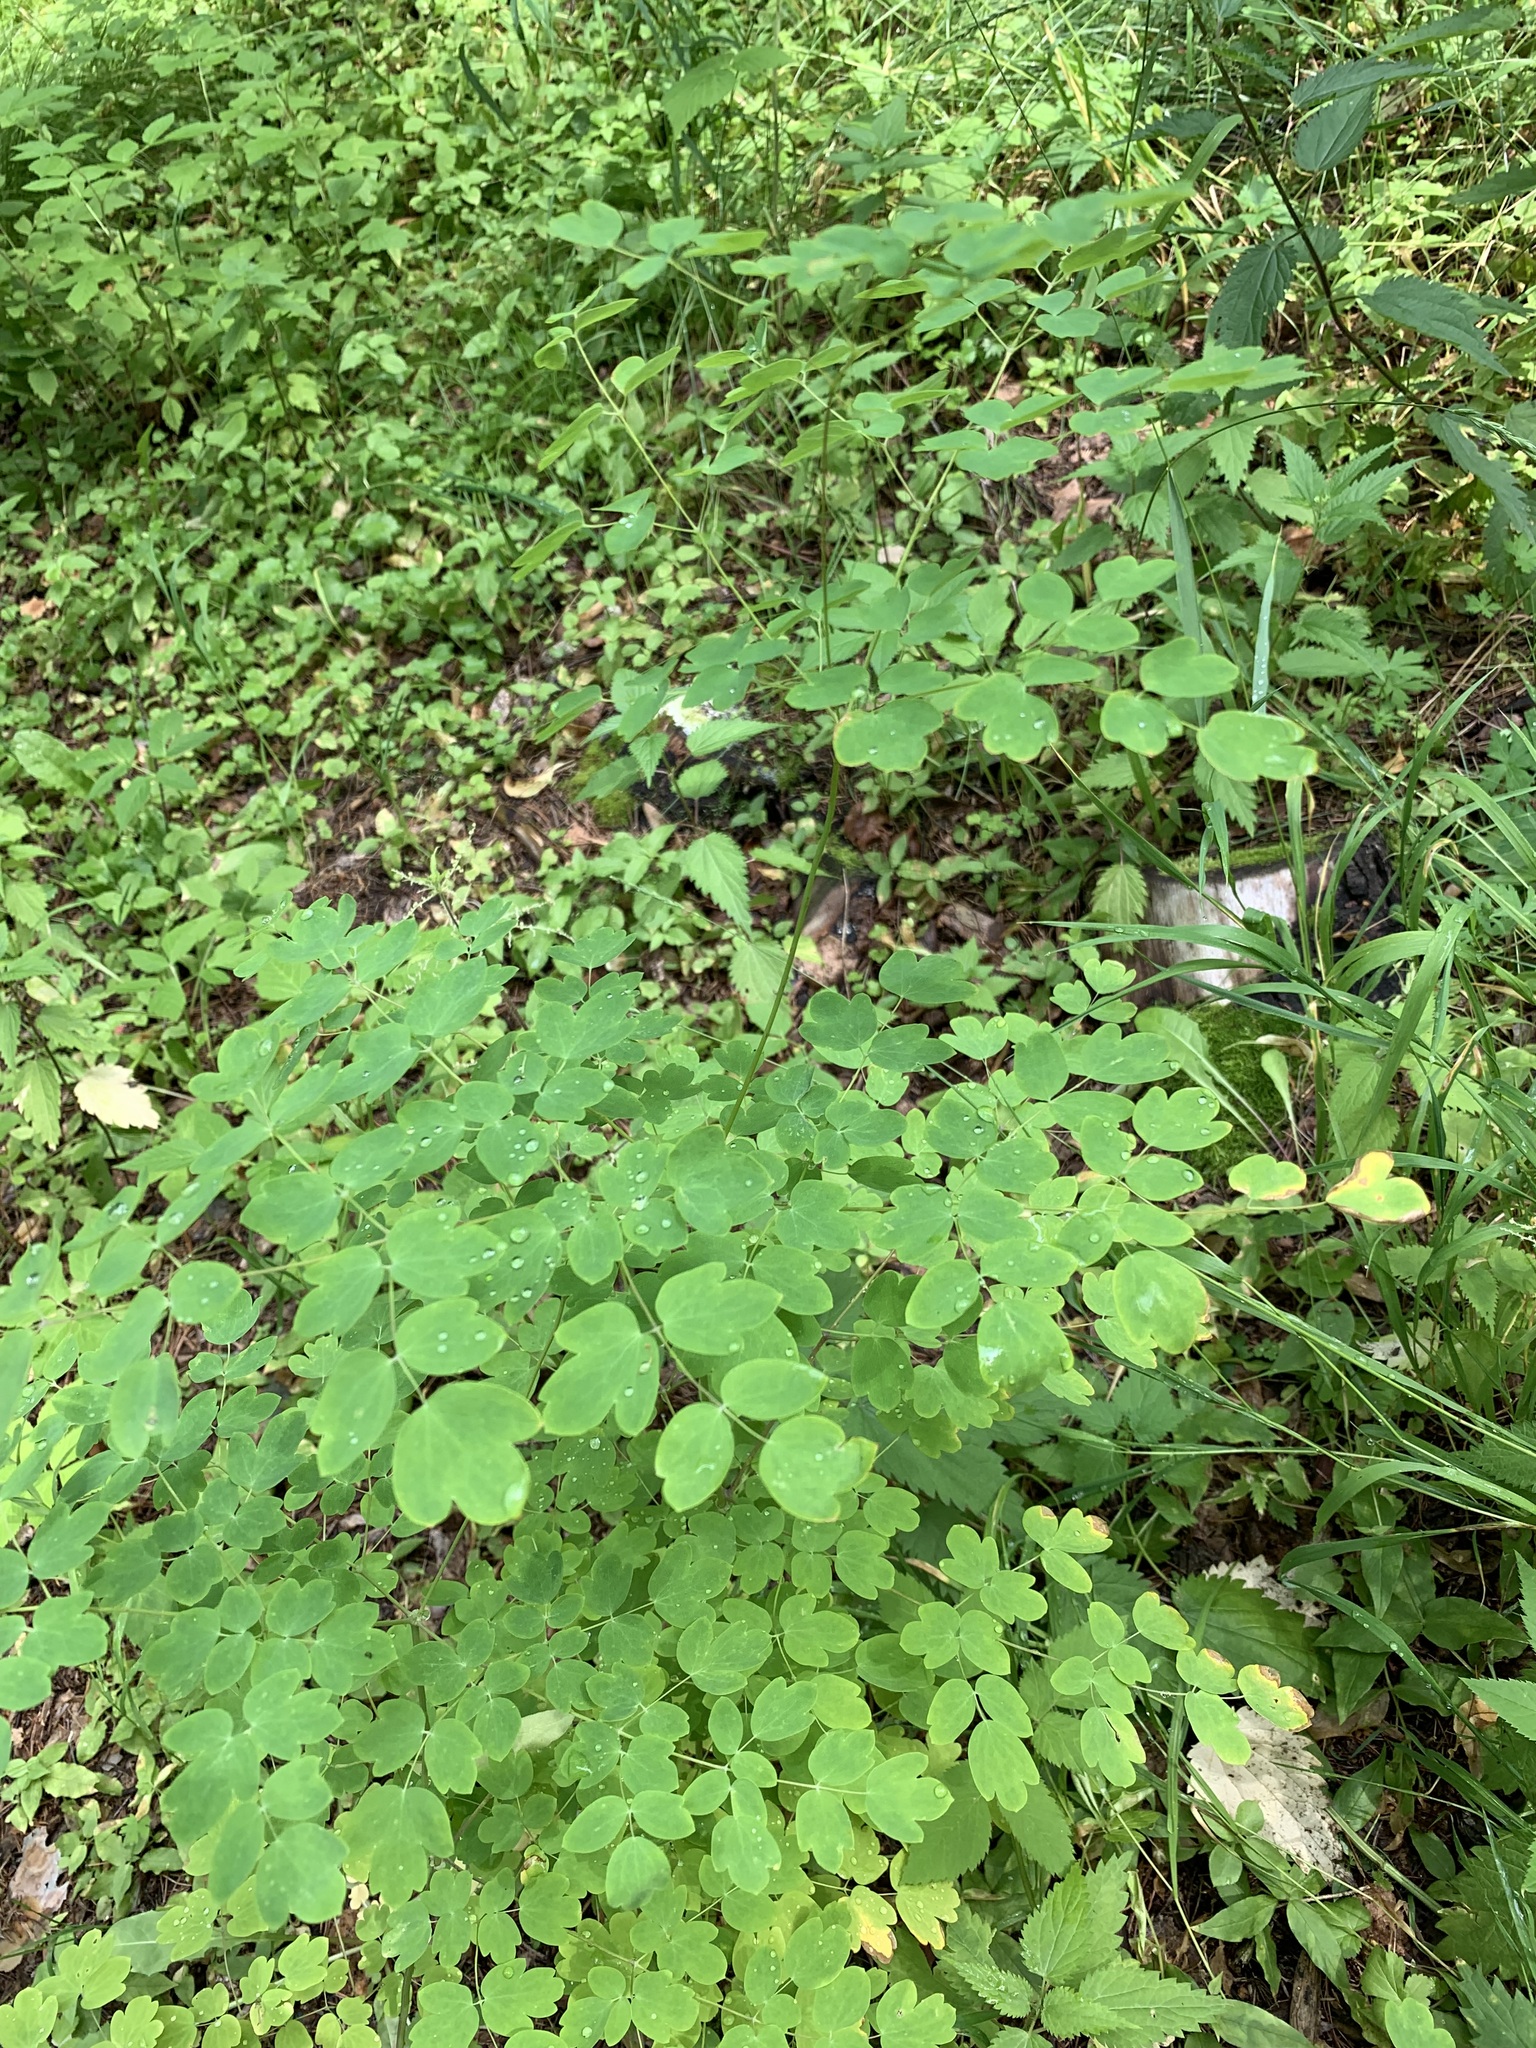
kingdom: Plantae
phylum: Tracheophyta
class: Magnoliopsida
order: Ranunculales
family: Ranunculaceae
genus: Thalictrum
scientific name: Thalictrum minus
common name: Lesser meadow-rue
